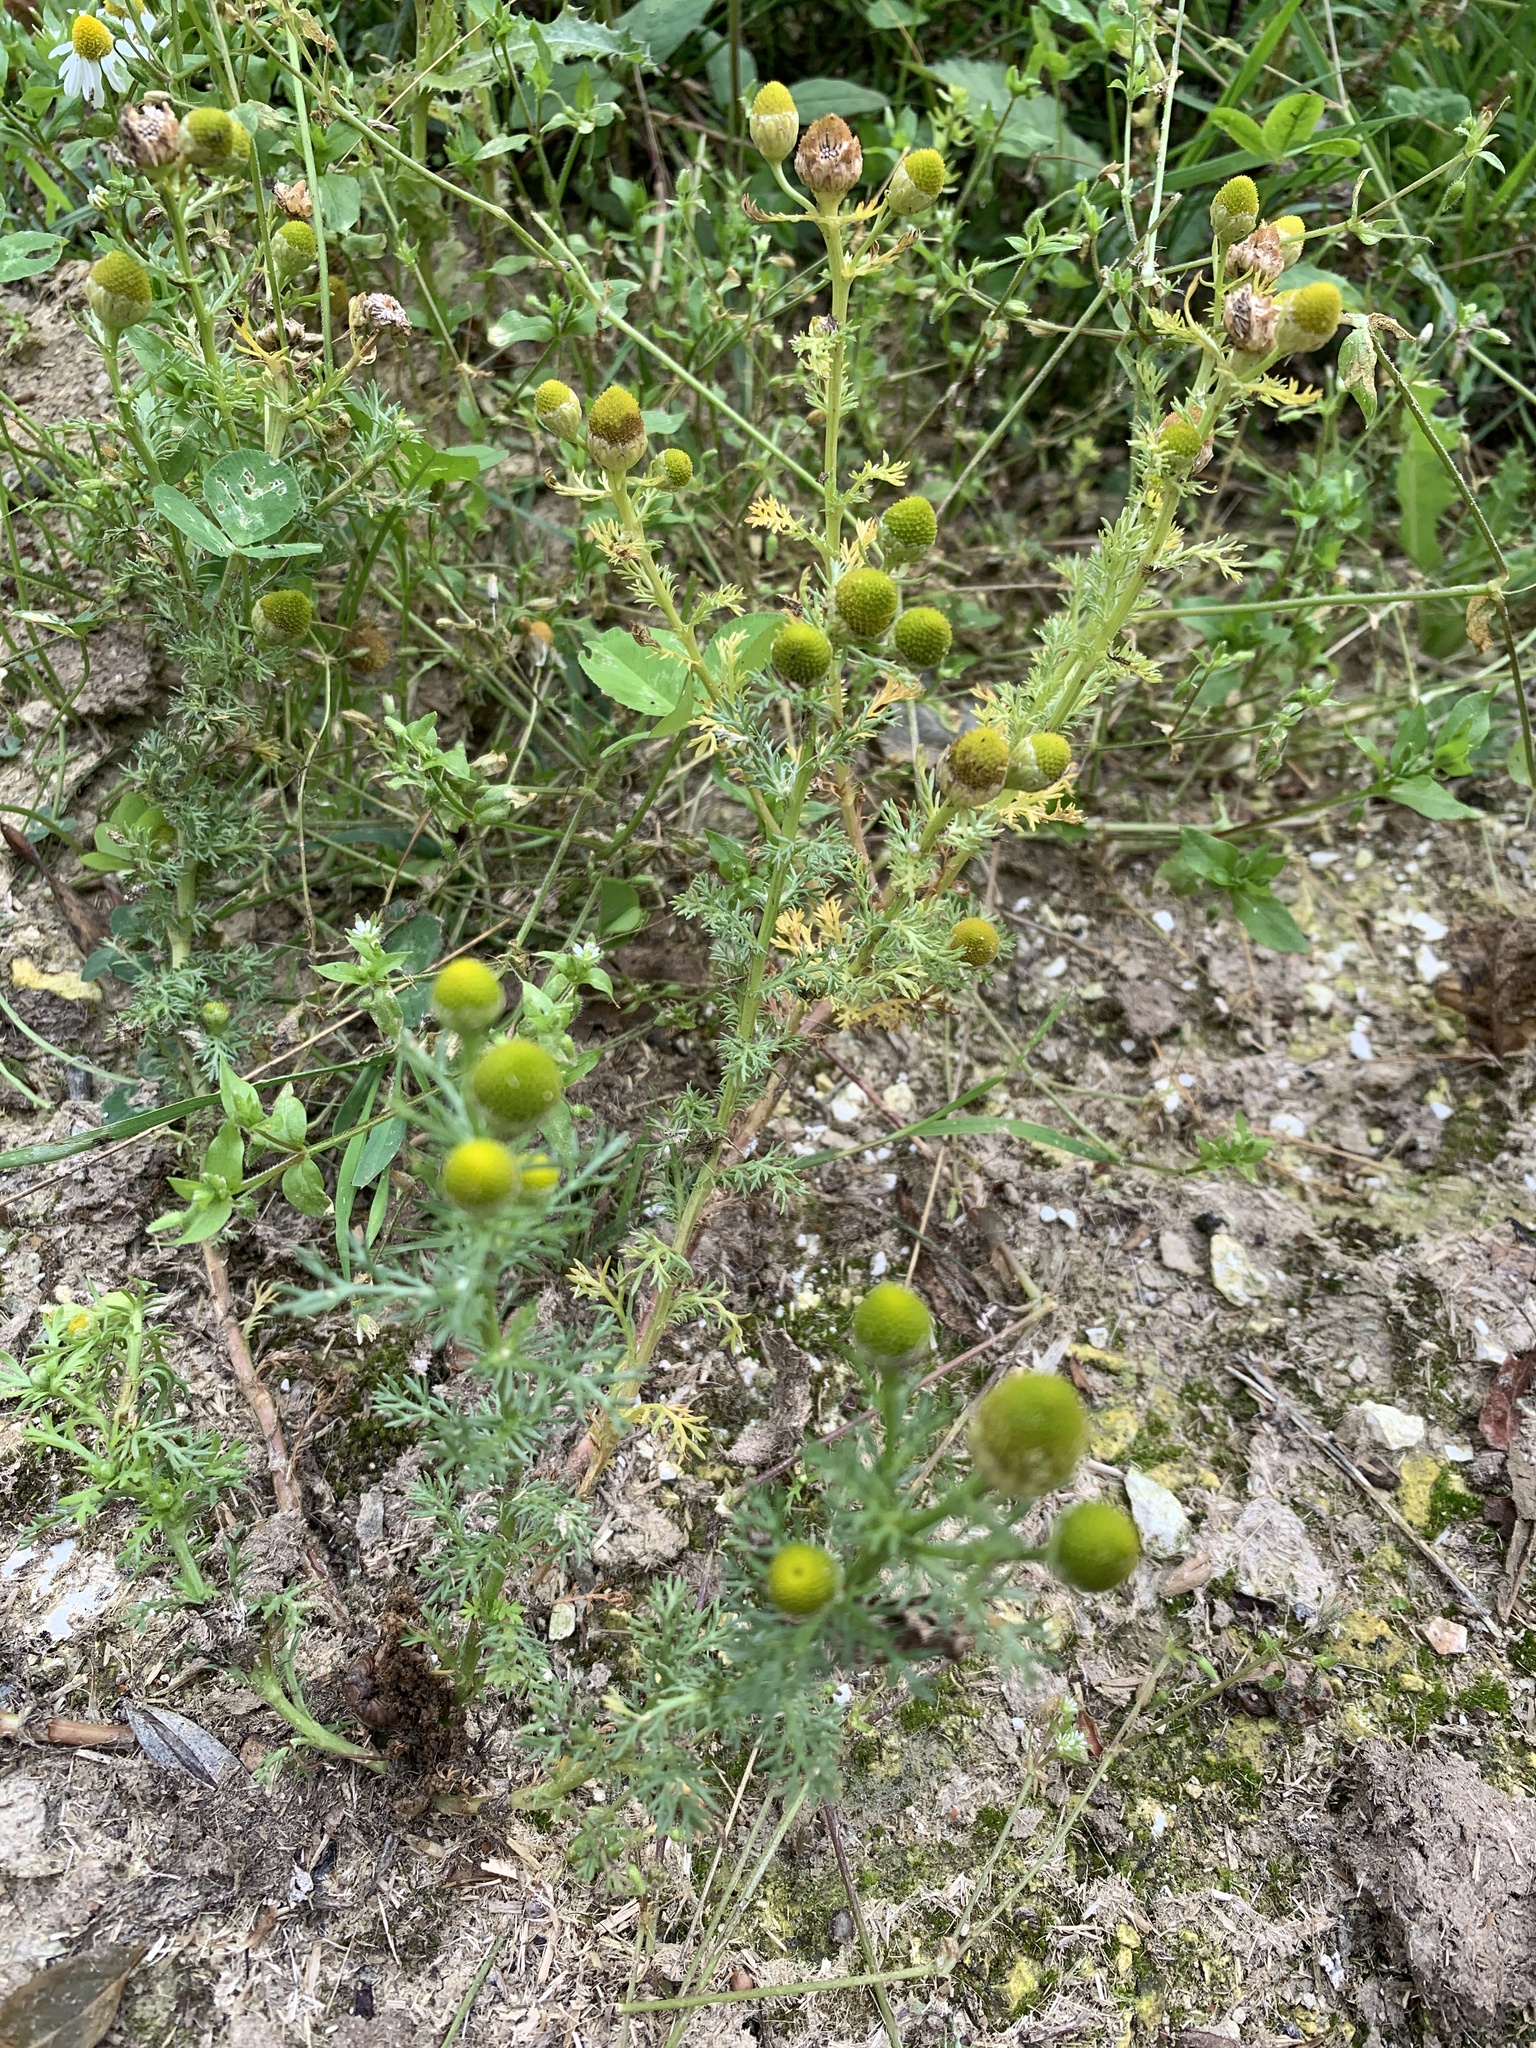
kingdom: Plantae
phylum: Tracheophyta
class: Magnoliopsida
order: Asterales
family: Asteraceae
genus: Matricaria
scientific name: Matricaria discoidea
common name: Disc mayweed
